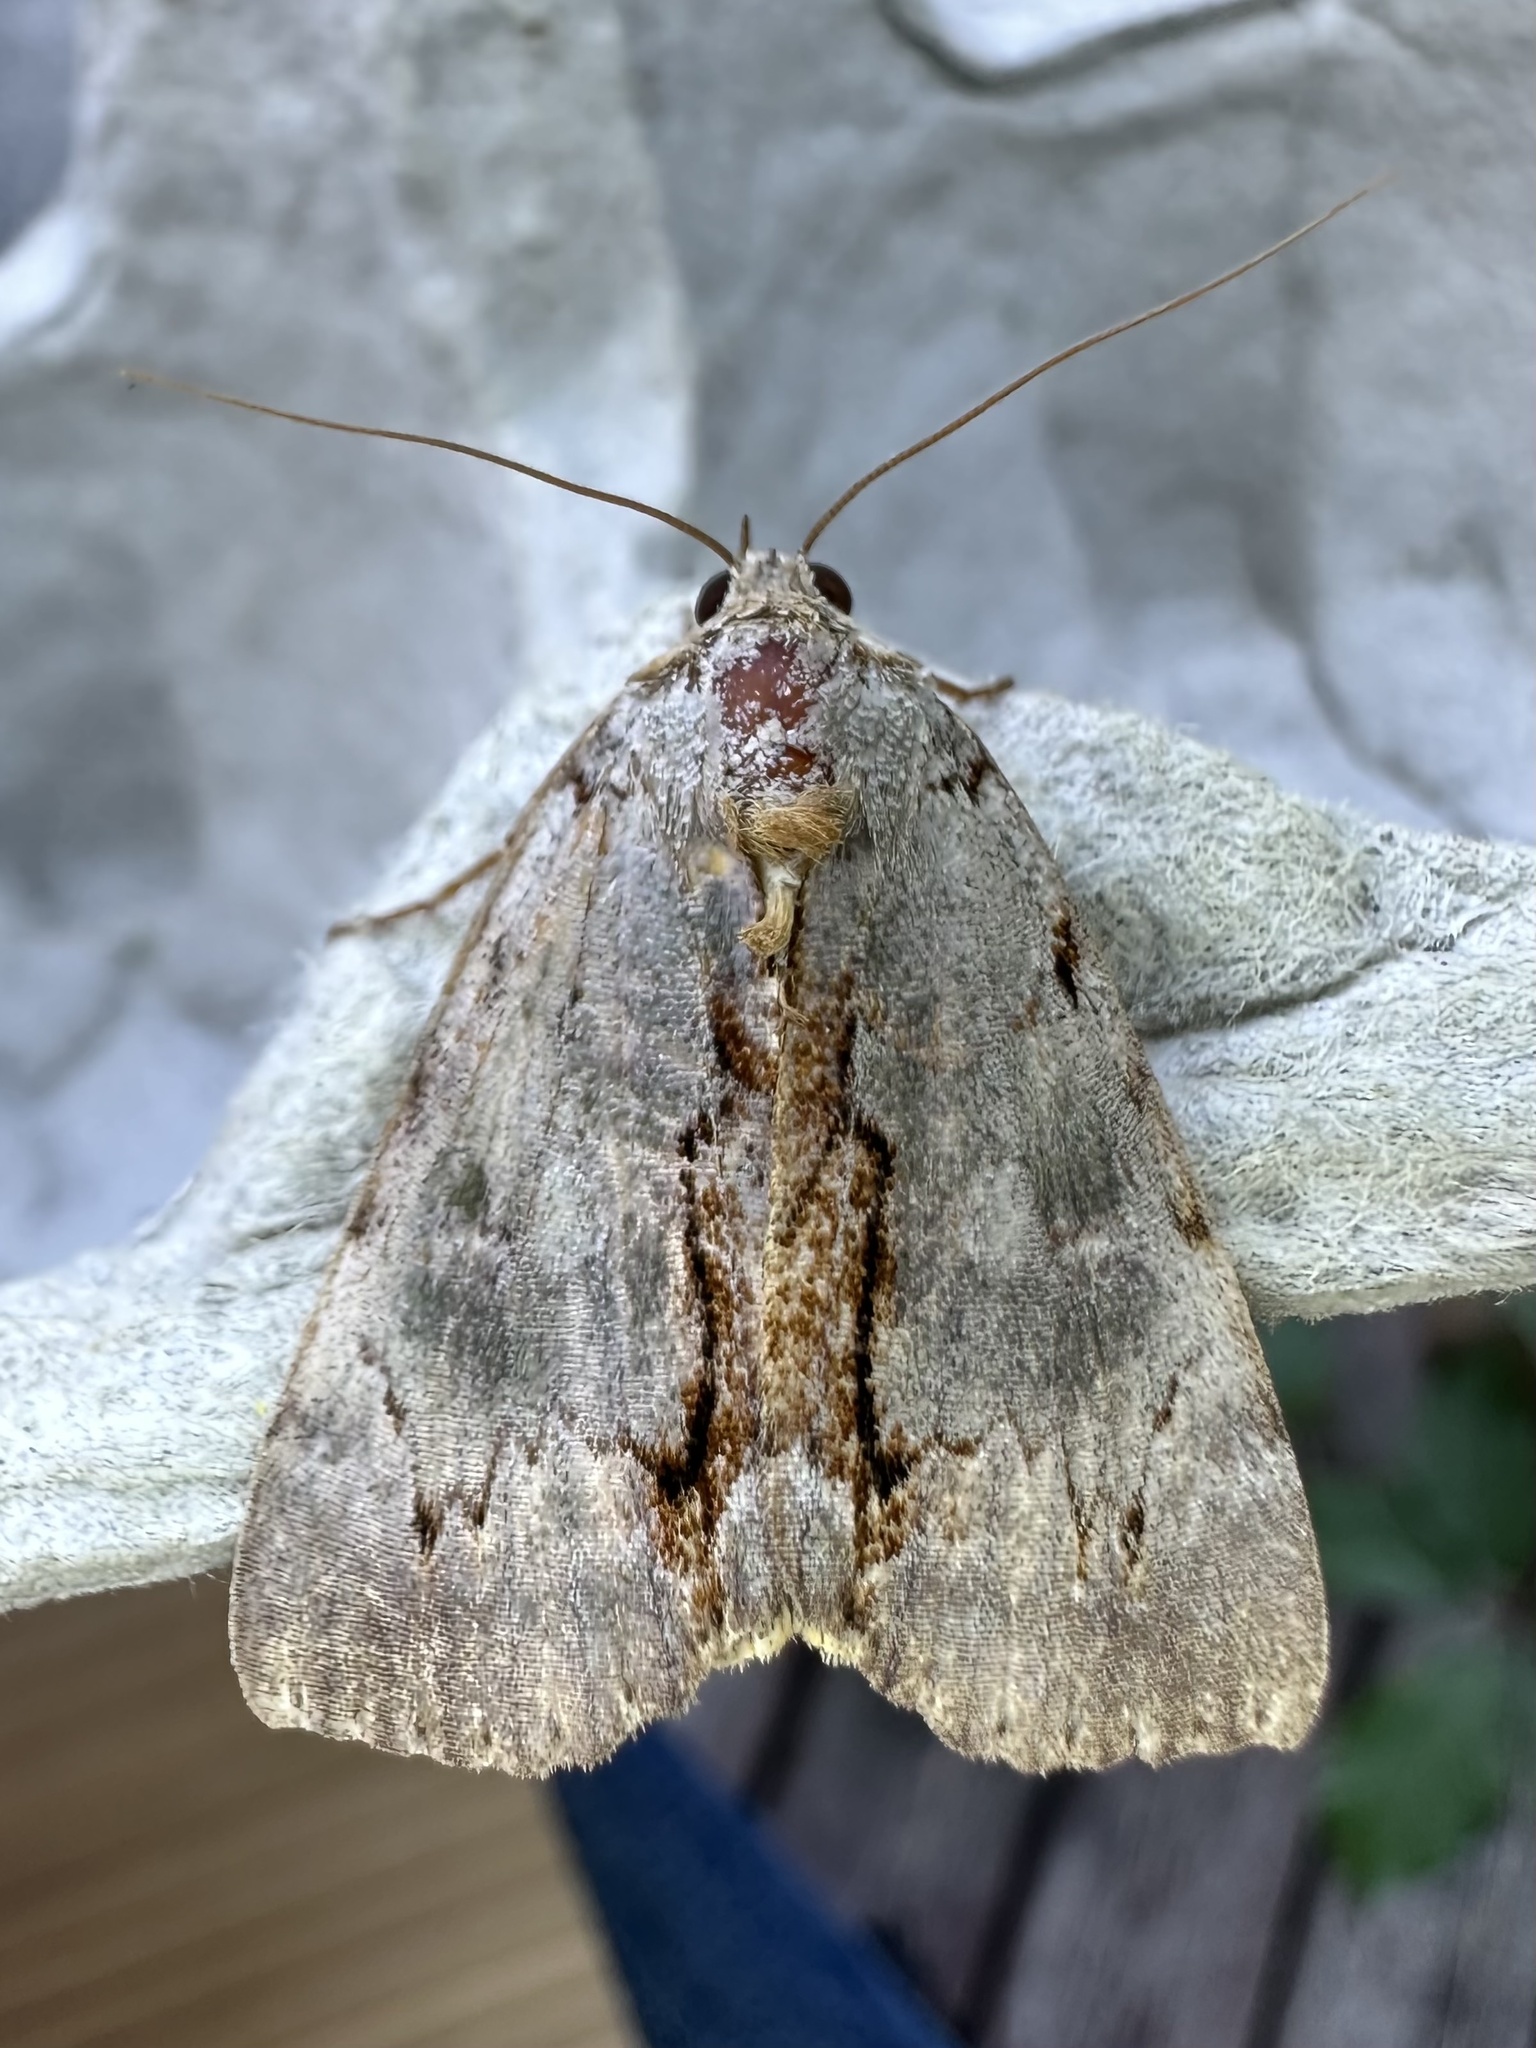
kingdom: Animalia
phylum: Arthropoda
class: Insecta
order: Lepidoptera
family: Erebidae
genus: Catocala
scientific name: Catocala grynea
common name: Woody underwing
